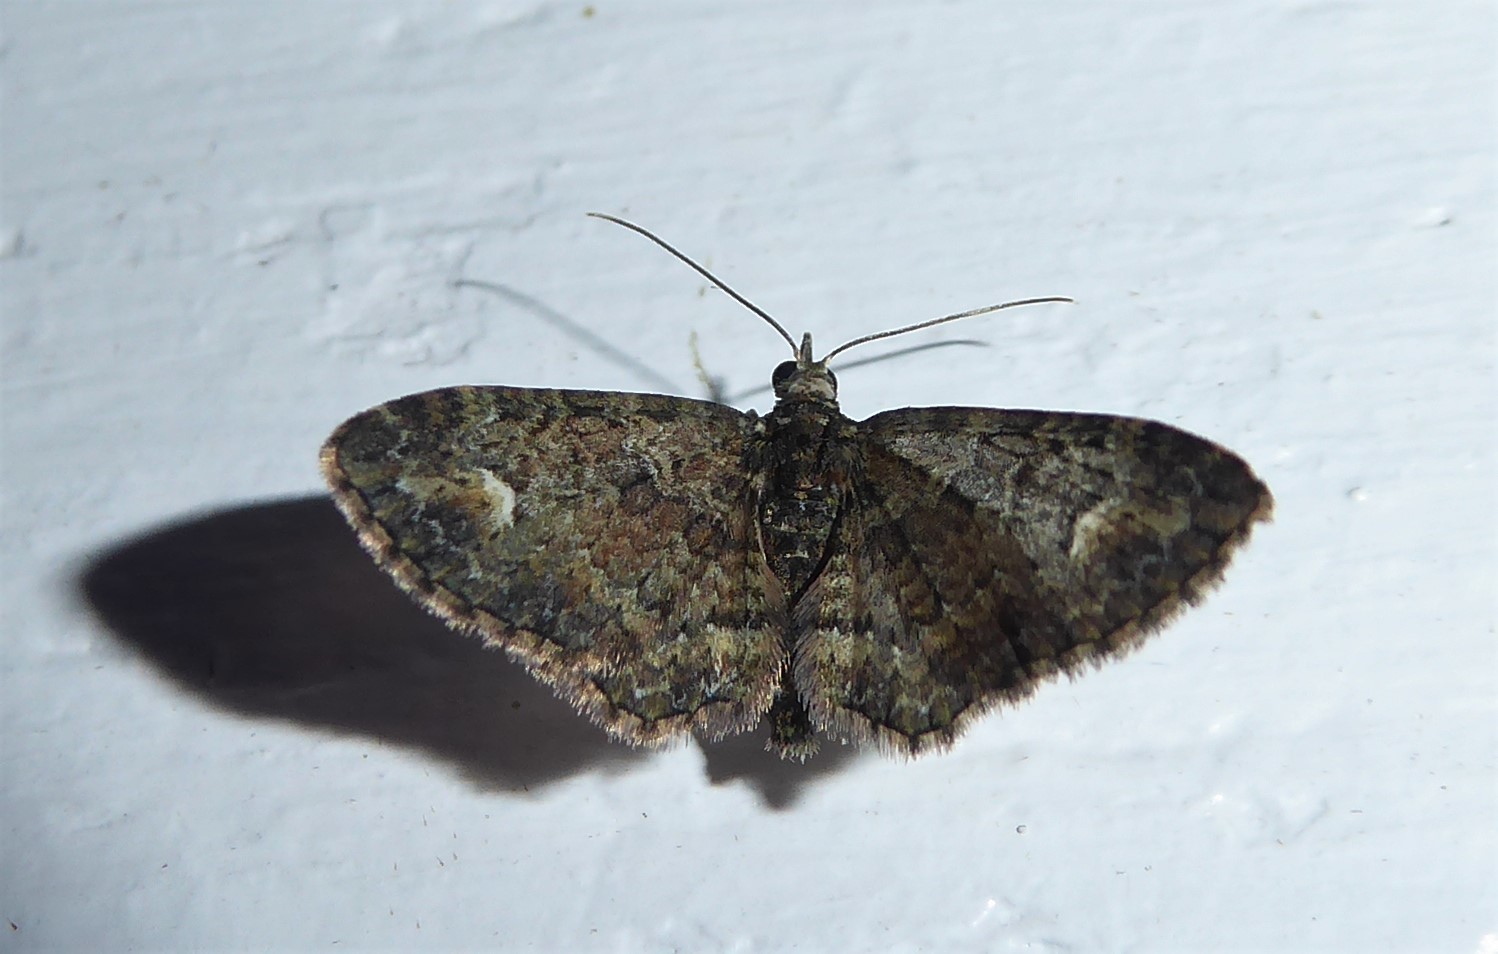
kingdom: Animalia
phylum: Arthropoda
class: Insecta
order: Lepidoptera
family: Geometridae
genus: Pasiphilodes
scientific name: Pasiphilodes testulata
